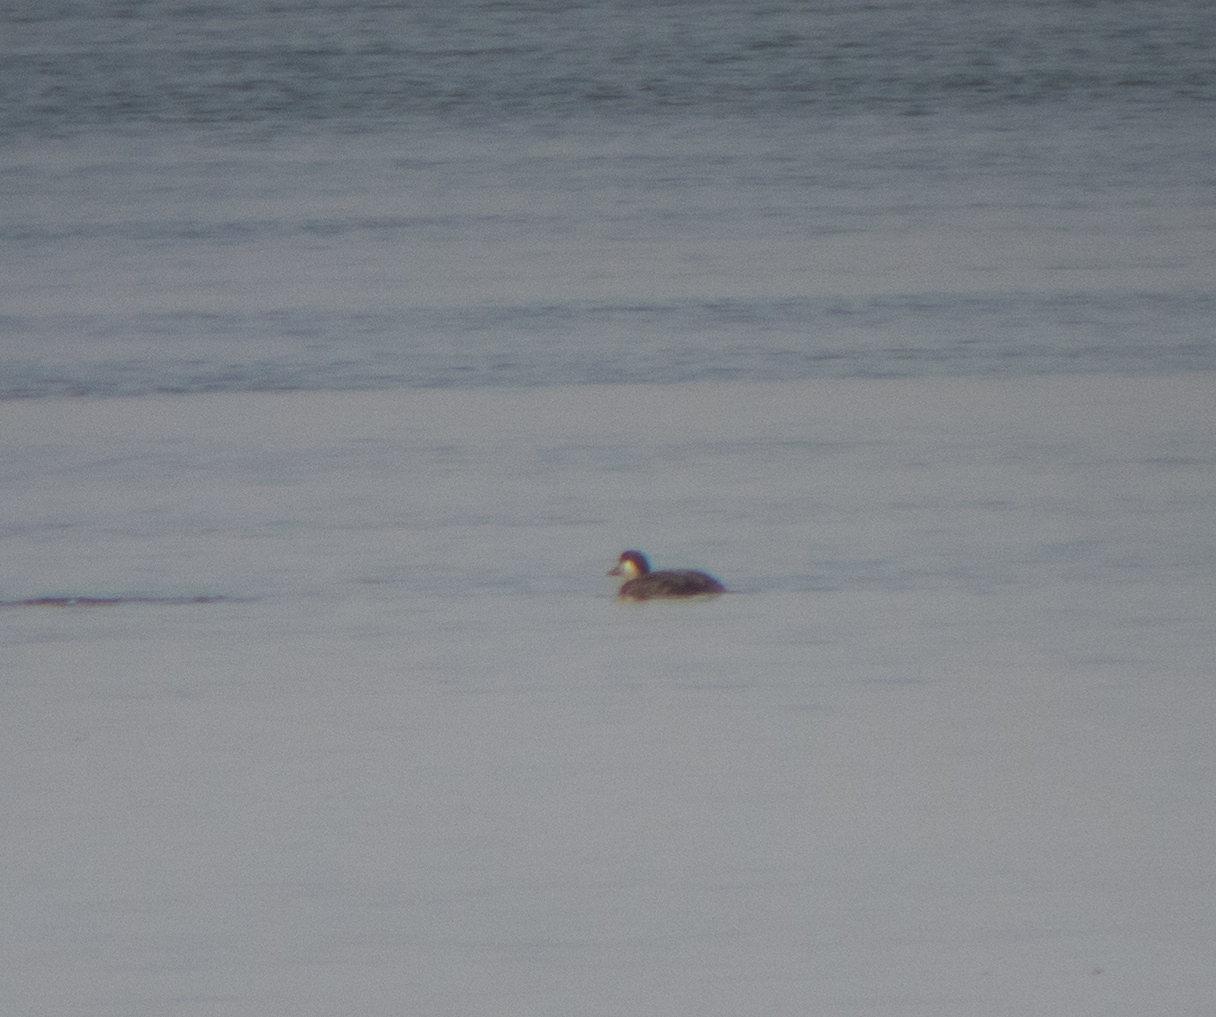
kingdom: Animalia
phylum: Chordata
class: Aves
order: Anseriformes
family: Anatidae
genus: Melanitta
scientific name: Melanitta nigra
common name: Common scoter
